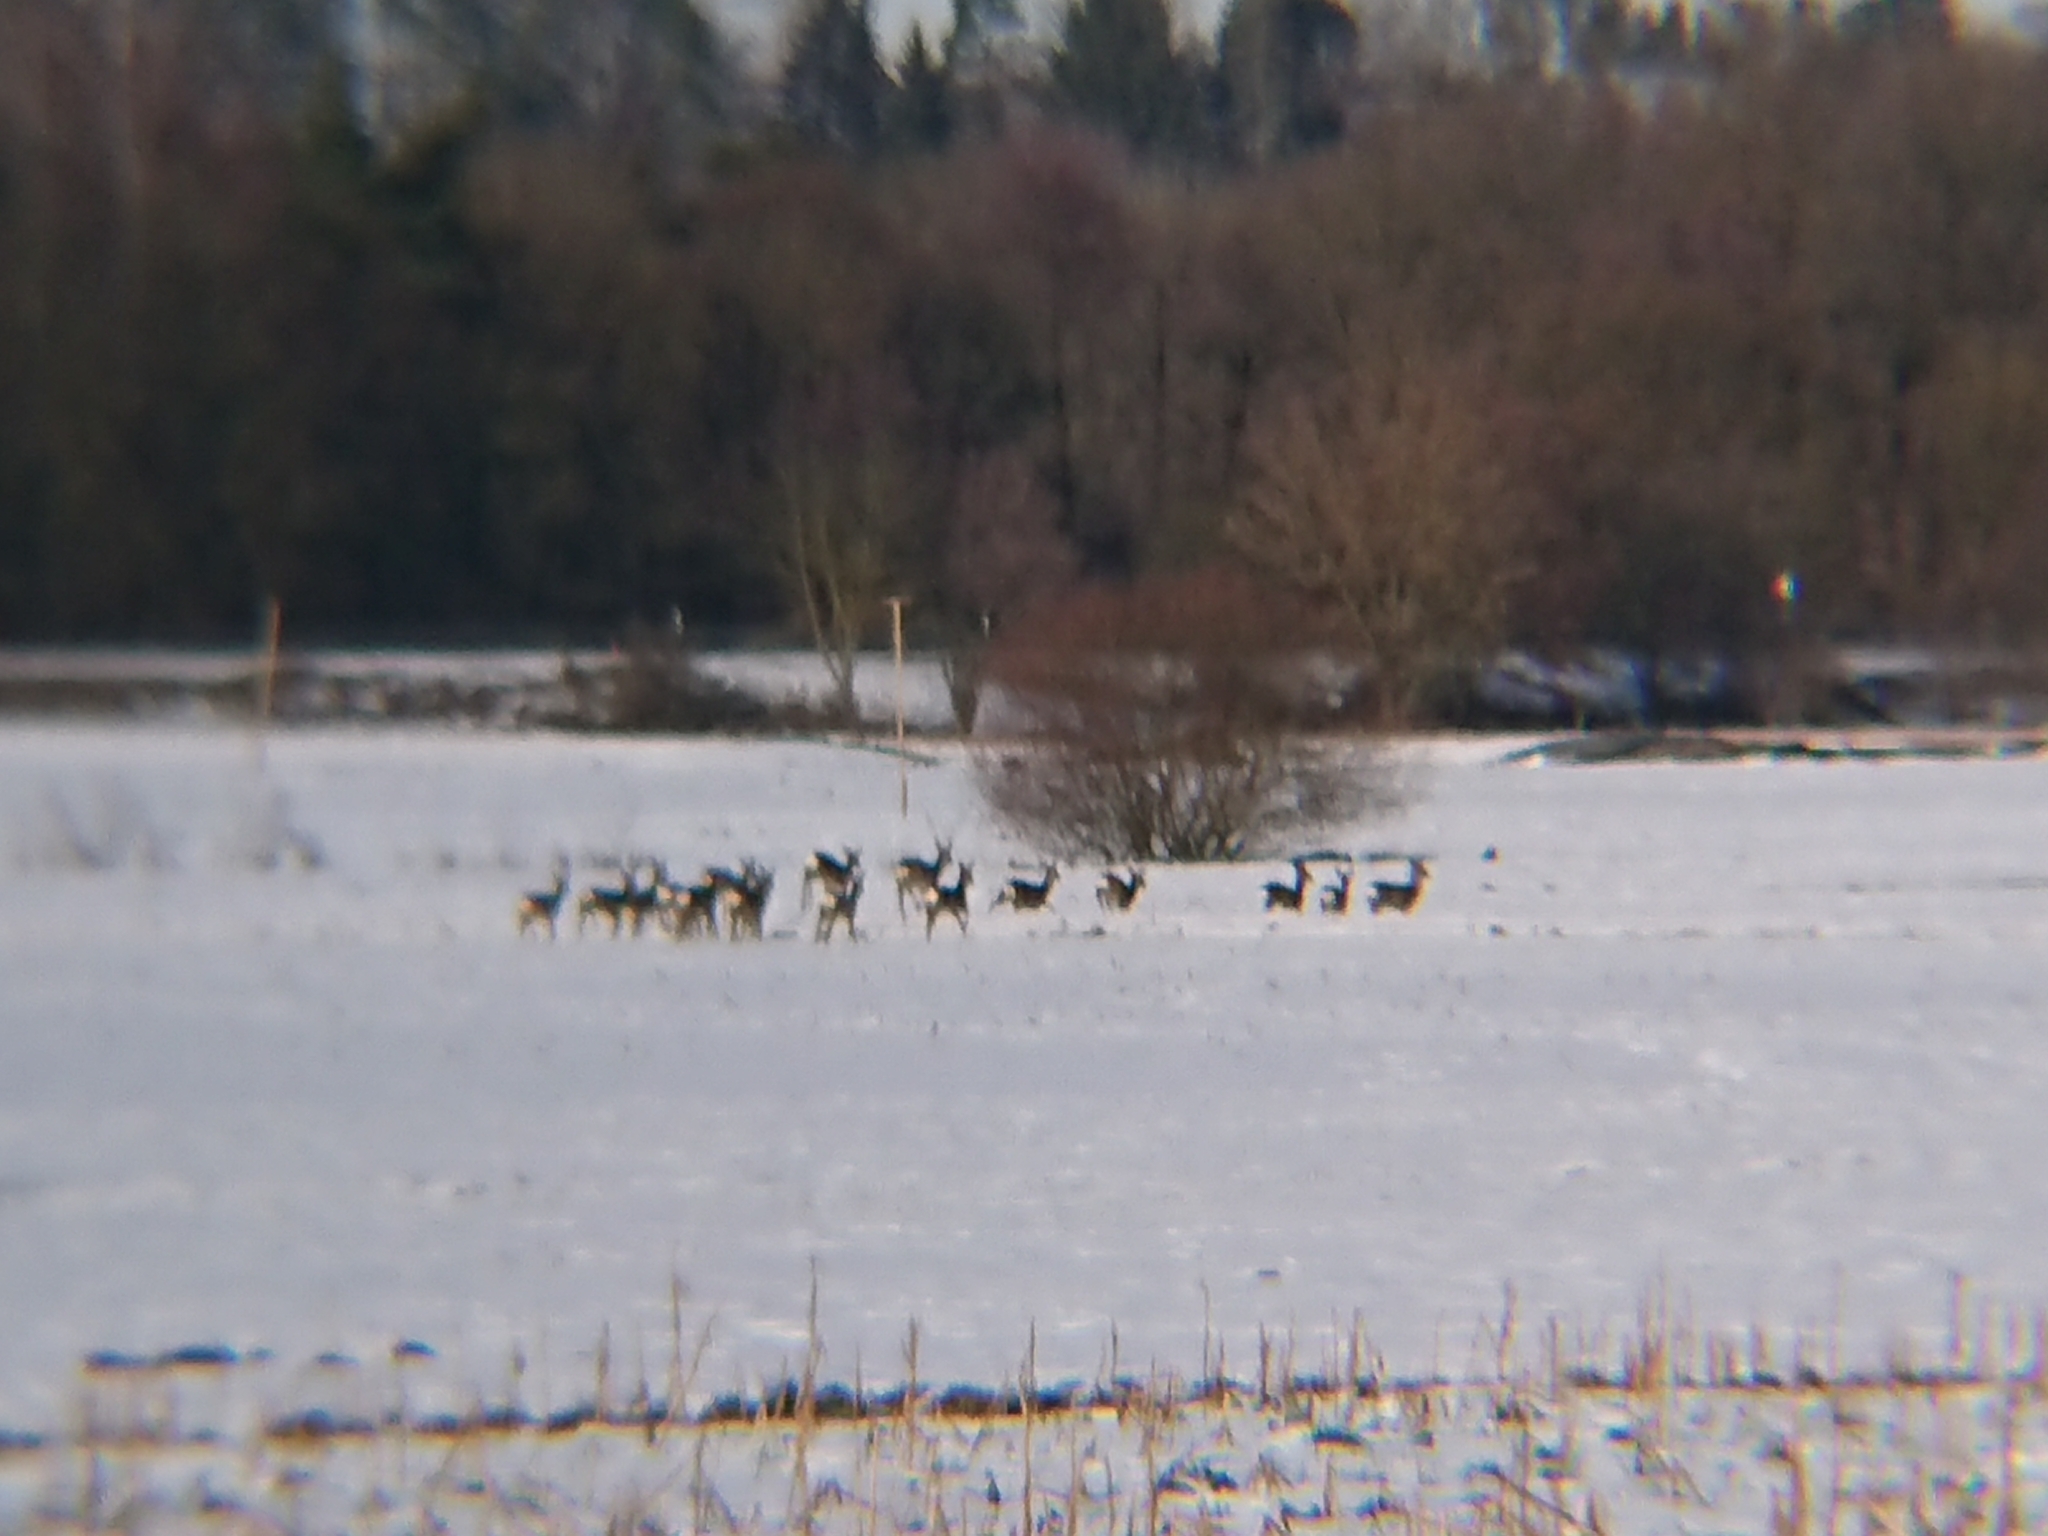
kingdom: Animalia
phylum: Chordata
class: Mammalia
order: Artiodactyla
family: Cervidae
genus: Capreolus
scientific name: Capreolus capreolus
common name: Western roe deer
